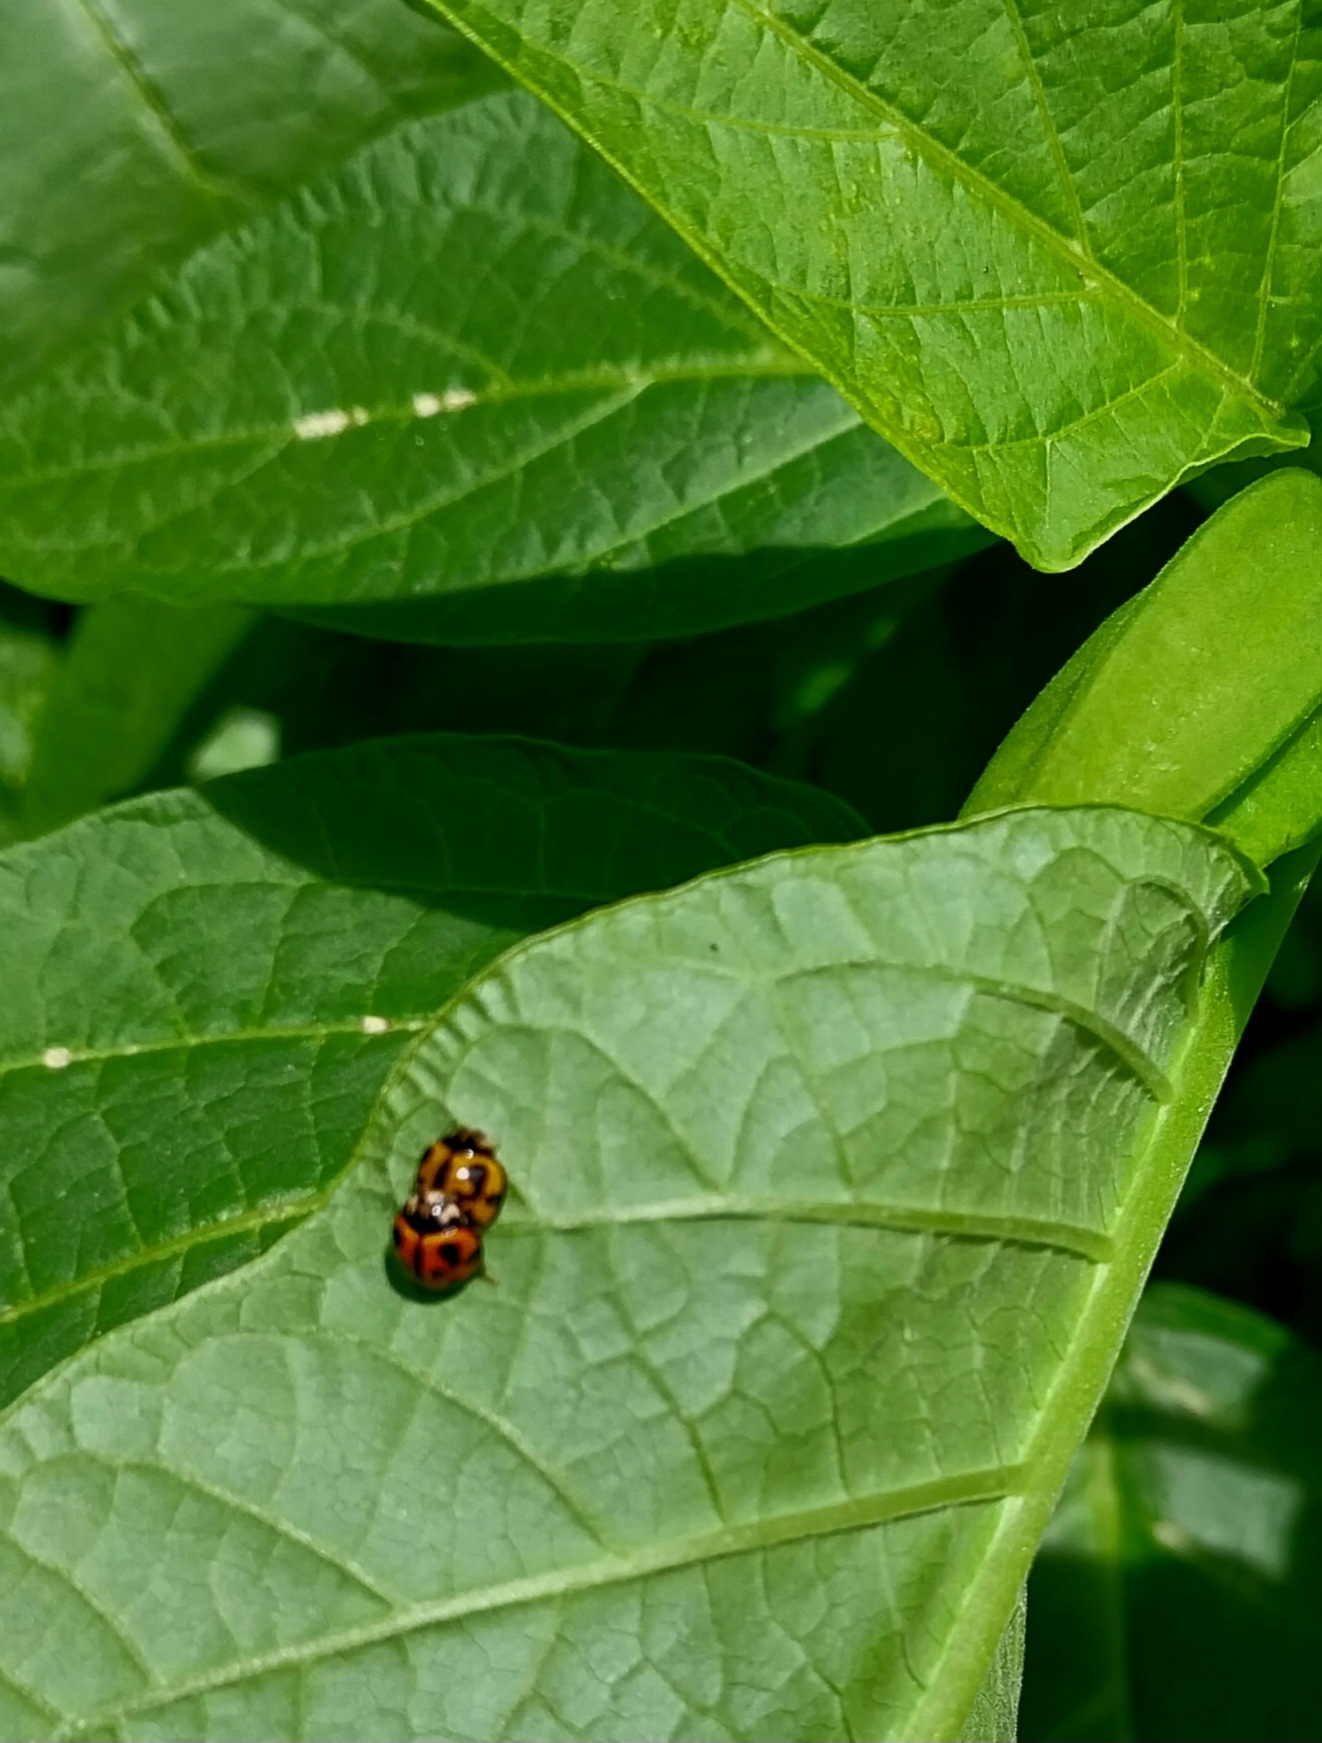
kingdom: Animalia
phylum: Arthropoda
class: Insecta
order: Coleoptera
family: Coccinellidae
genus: Coelophora
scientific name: Coelophora inaequalis
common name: Common australian lady beetle
